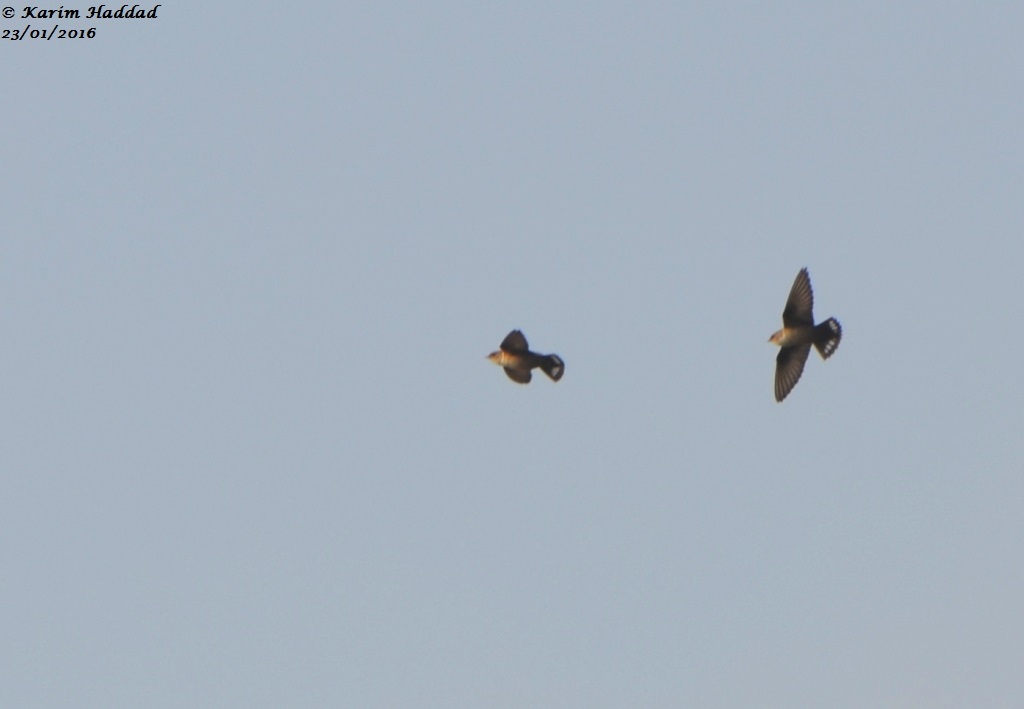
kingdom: Animalia
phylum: Chordata
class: Aves
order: Passeriformes
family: Hirundinidae
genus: Ptyonoprogne
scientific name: Ptyonoprogne rupestris
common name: Eurasian crag martin
